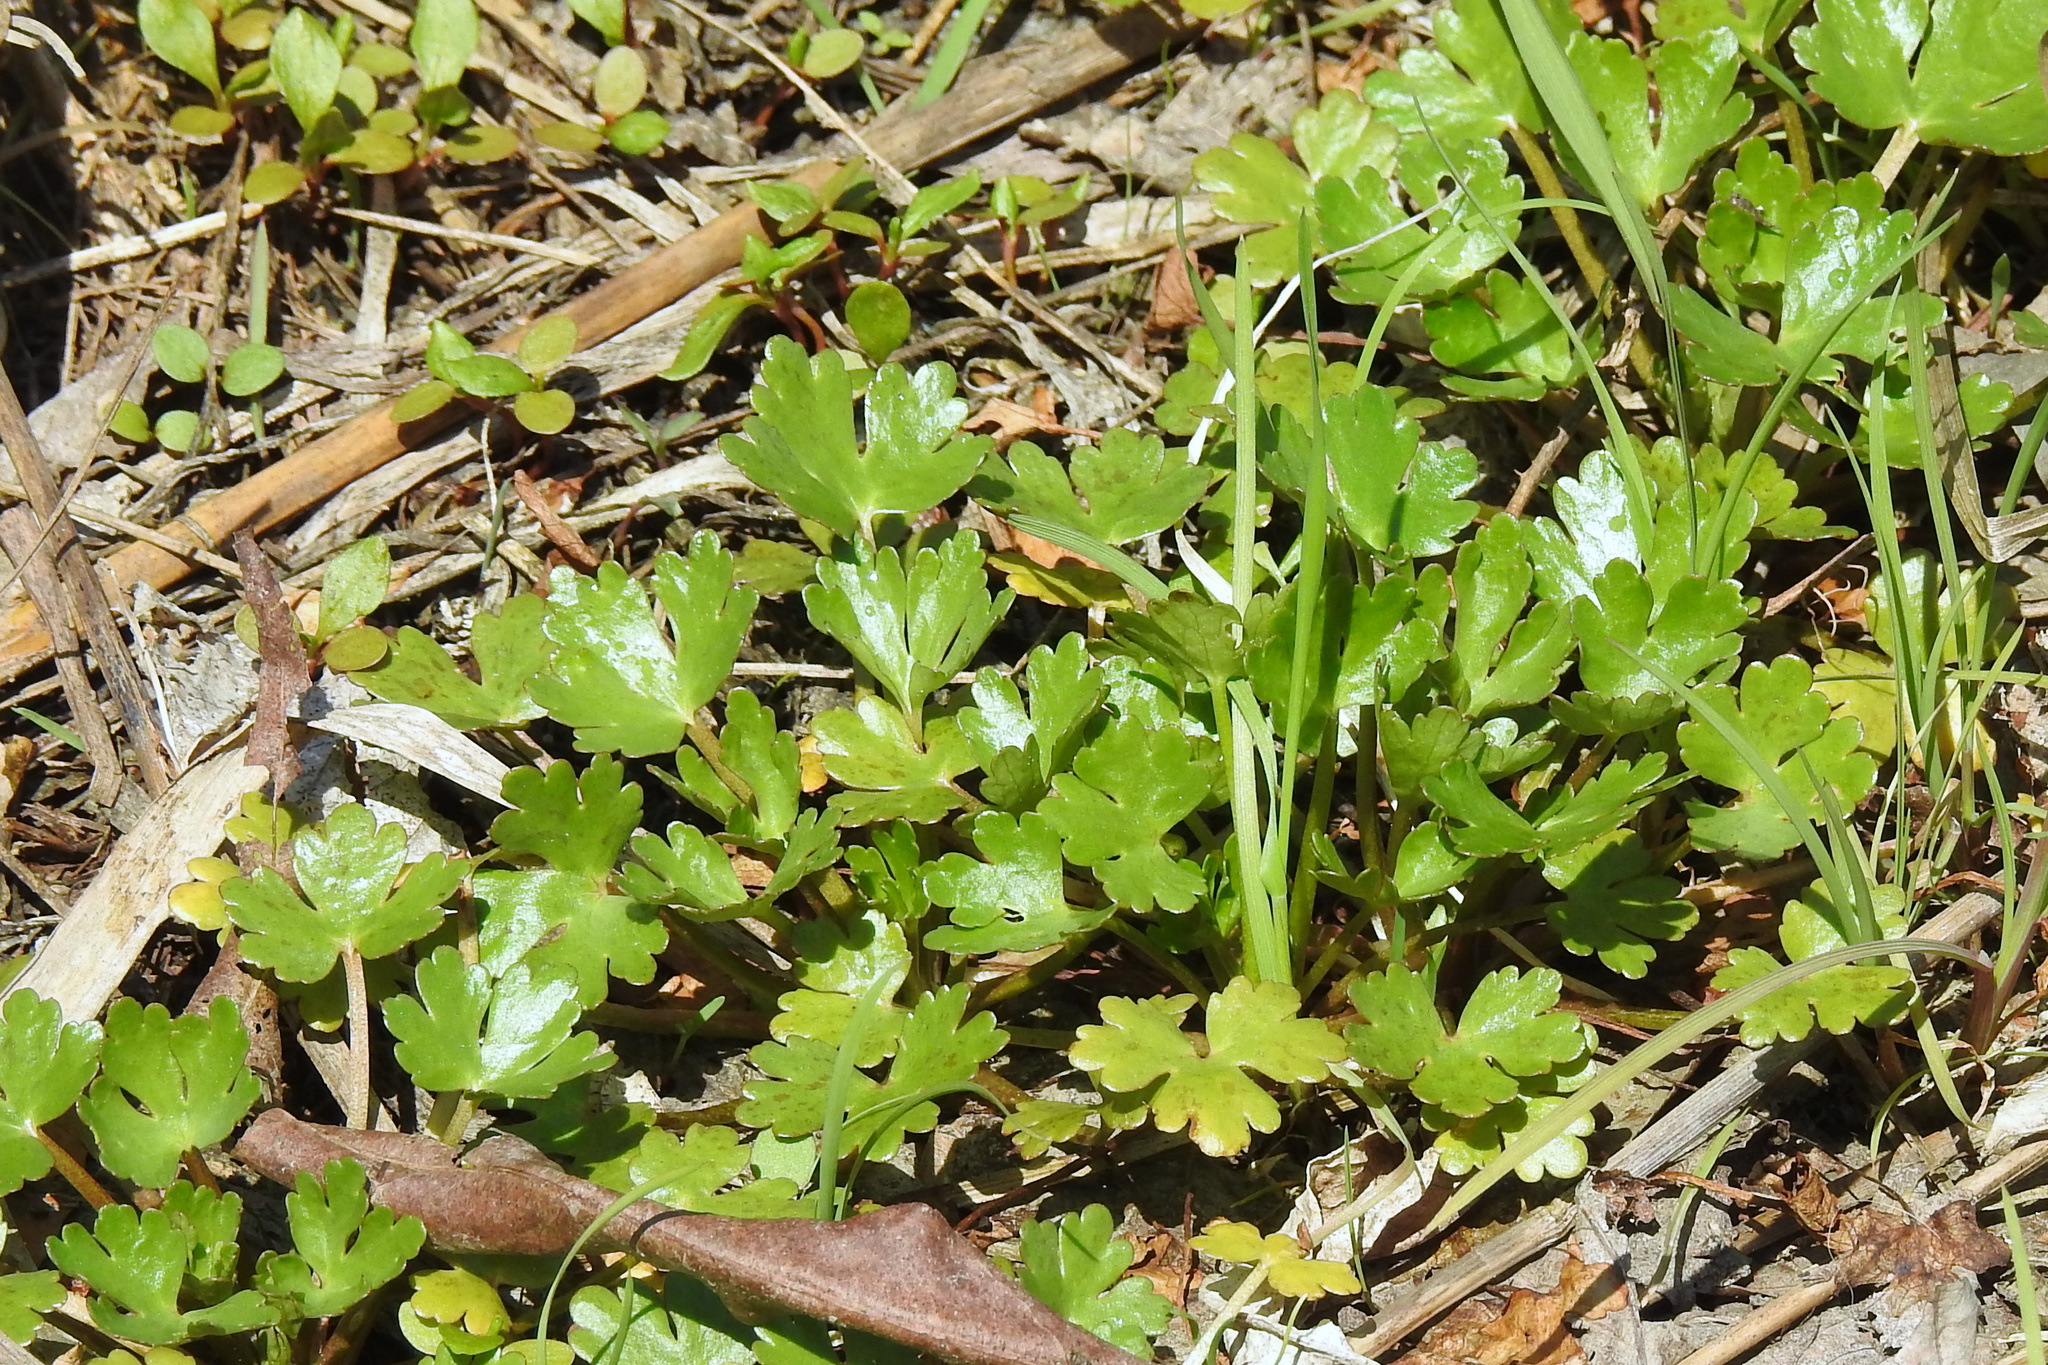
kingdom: Plantae
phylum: Tracheophyta
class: Magnoliopsida
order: Ranunculales
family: Ranunculaceae
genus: Ranunculus
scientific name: Ranunculus sceleratus
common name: Celery-leaved buttercup
